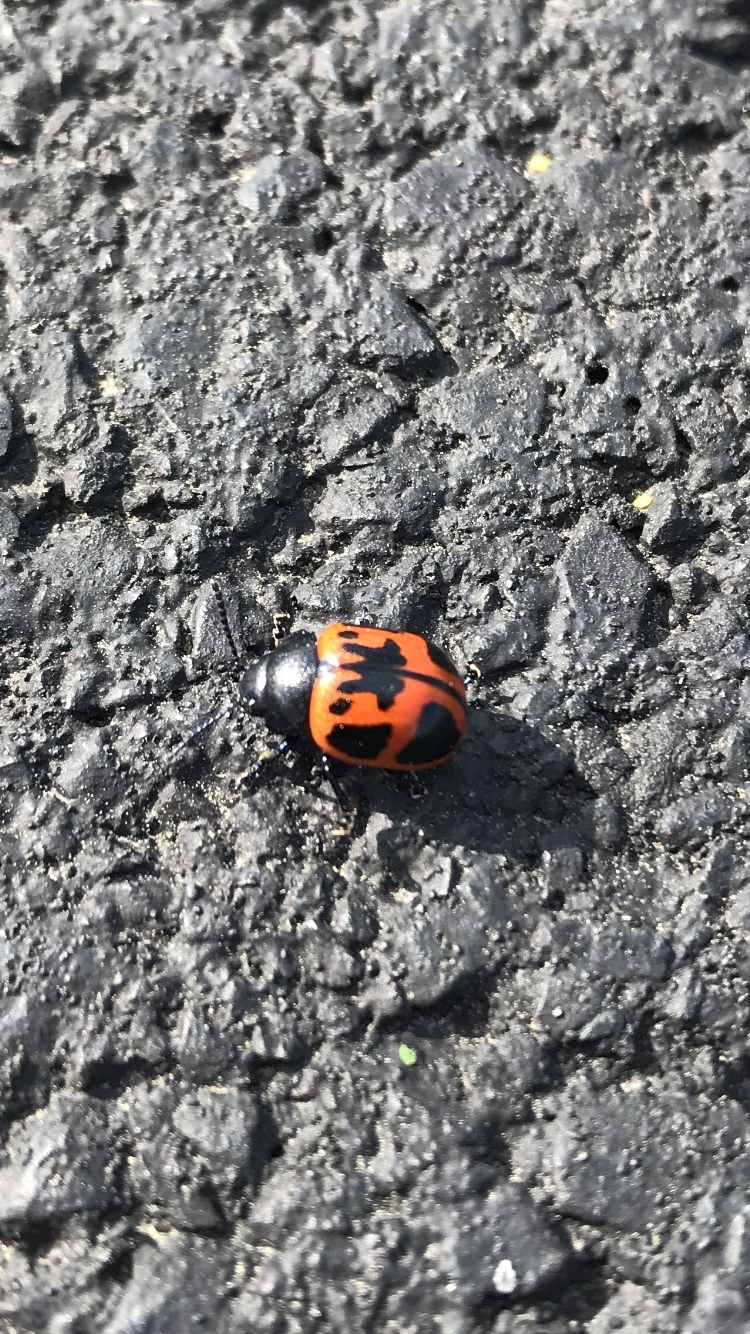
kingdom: Animalia
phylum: Arthropoda
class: Insecta
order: Coleoptera
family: Chrysomelidae
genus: Labidomera
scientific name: Labidomera clivicollis
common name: Swamp milkweed leaf beetle
